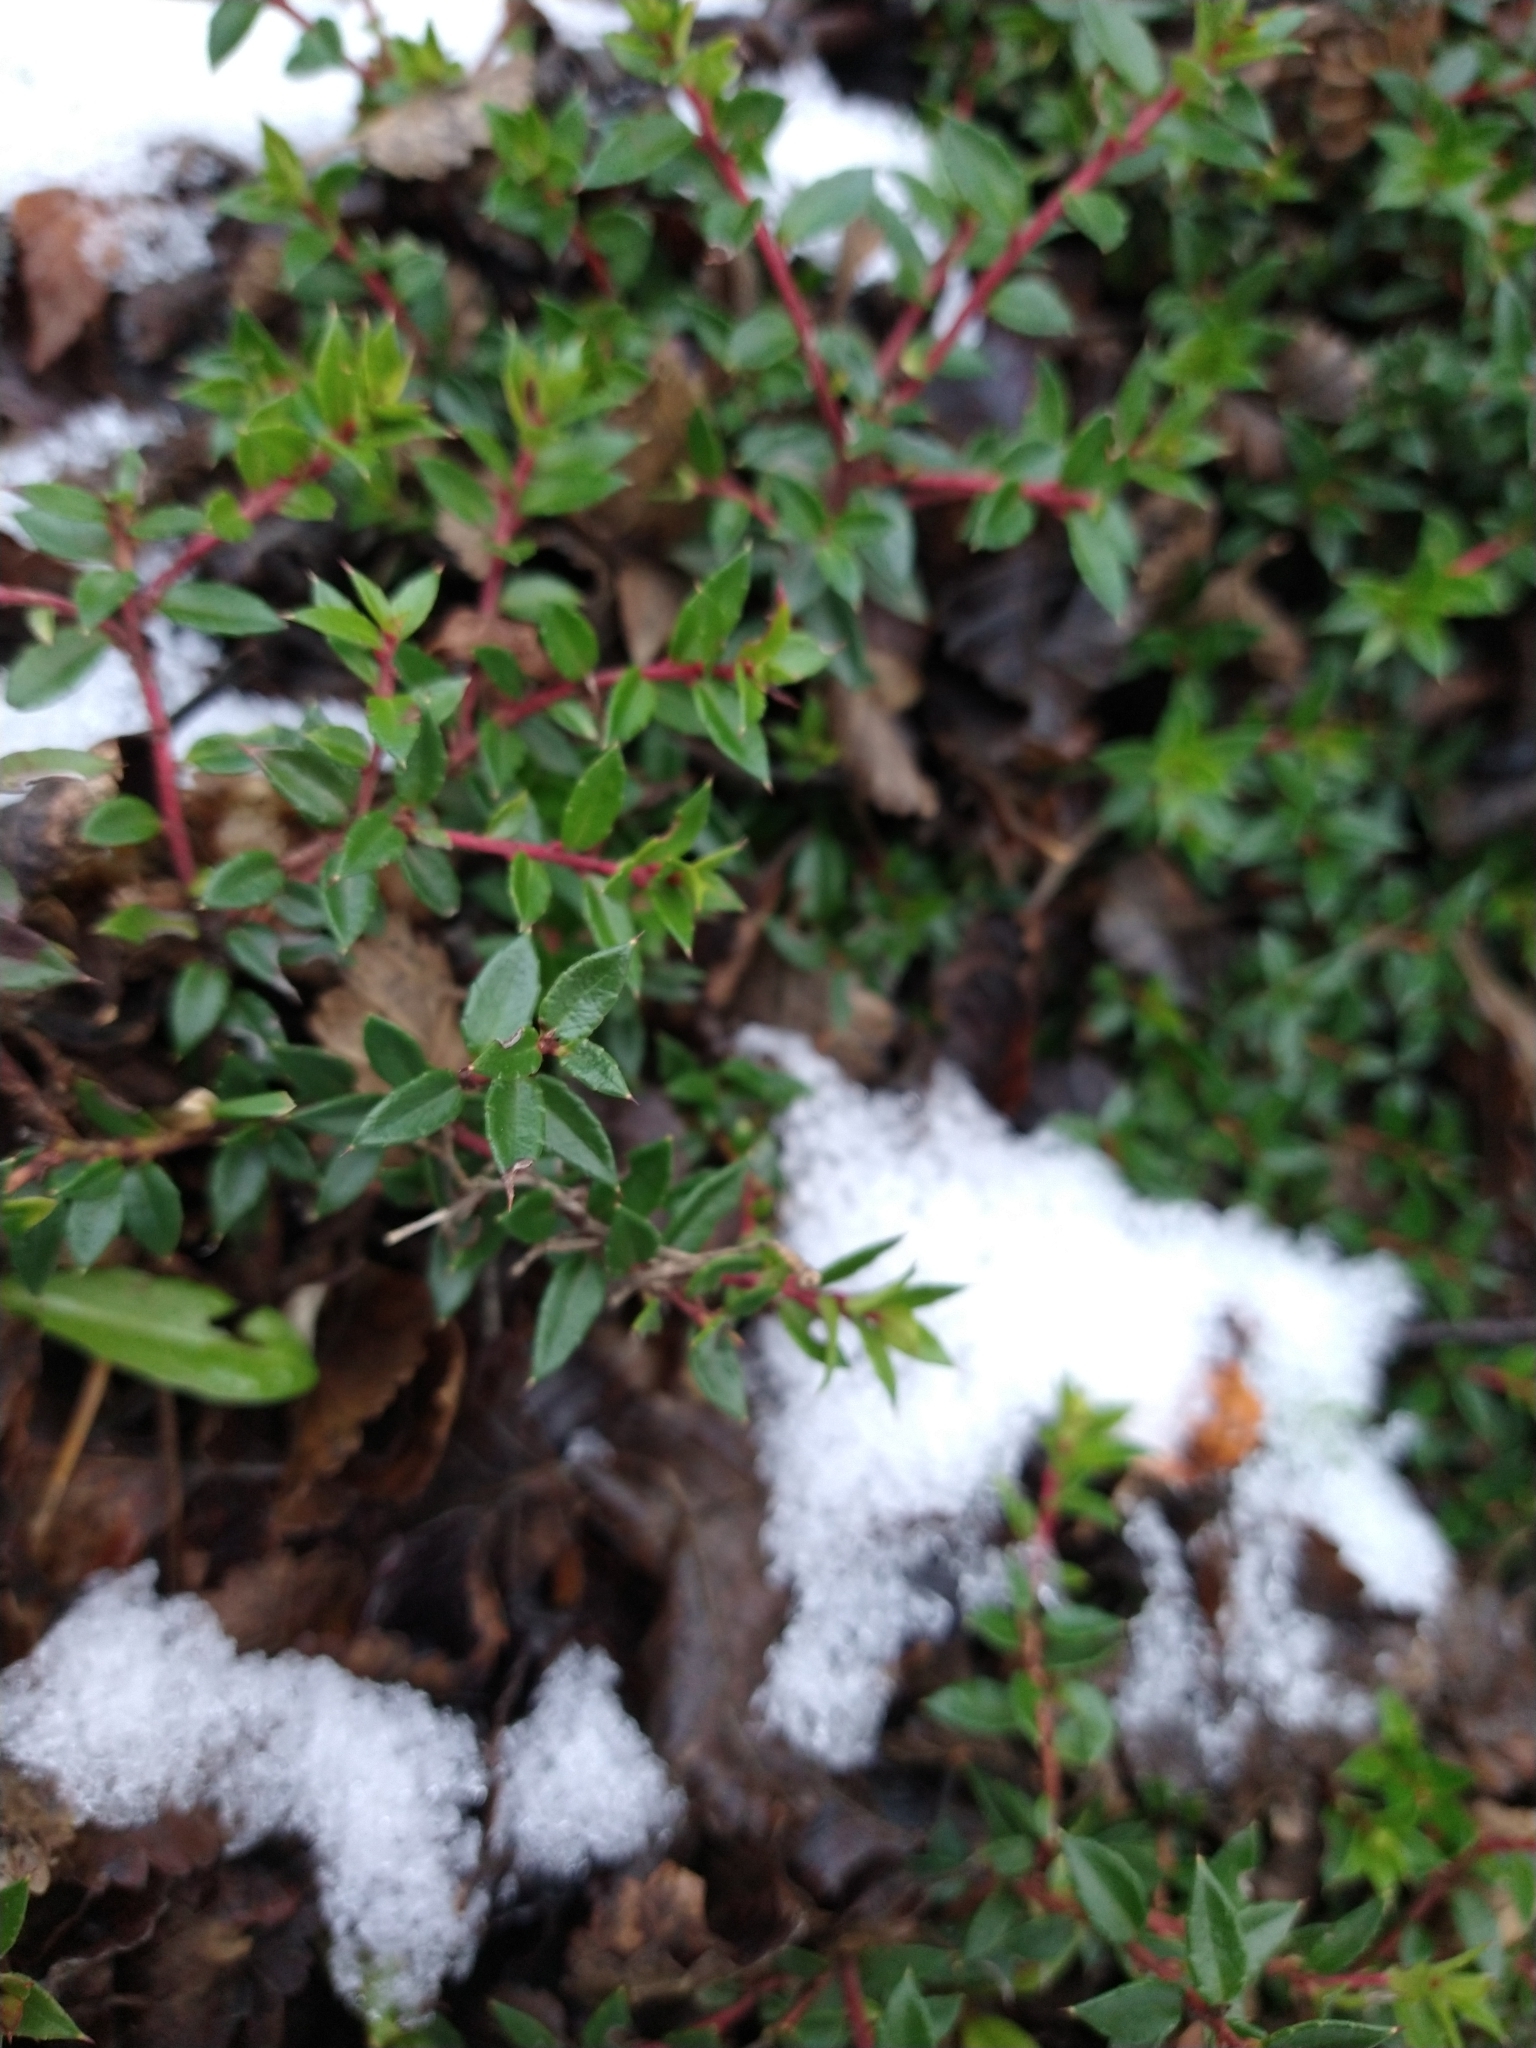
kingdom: Plantae
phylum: Tracheophyta
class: Magnoliopsida
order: Ericales
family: Ericaceae
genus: Gaultheria
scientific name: Gaultheria mucronata
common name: Prickly heath
